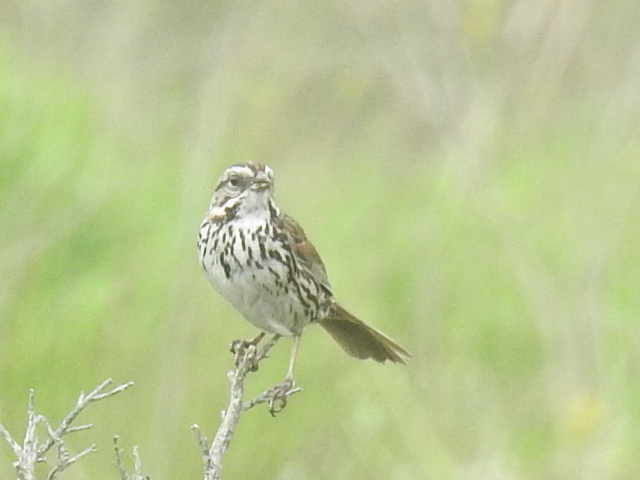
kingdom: Animalia
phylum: Chordata
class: Aves
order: Passeriformes
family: Passerellidae
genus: Melospiza
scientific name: Melospiza melodia
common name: Song sparrow
